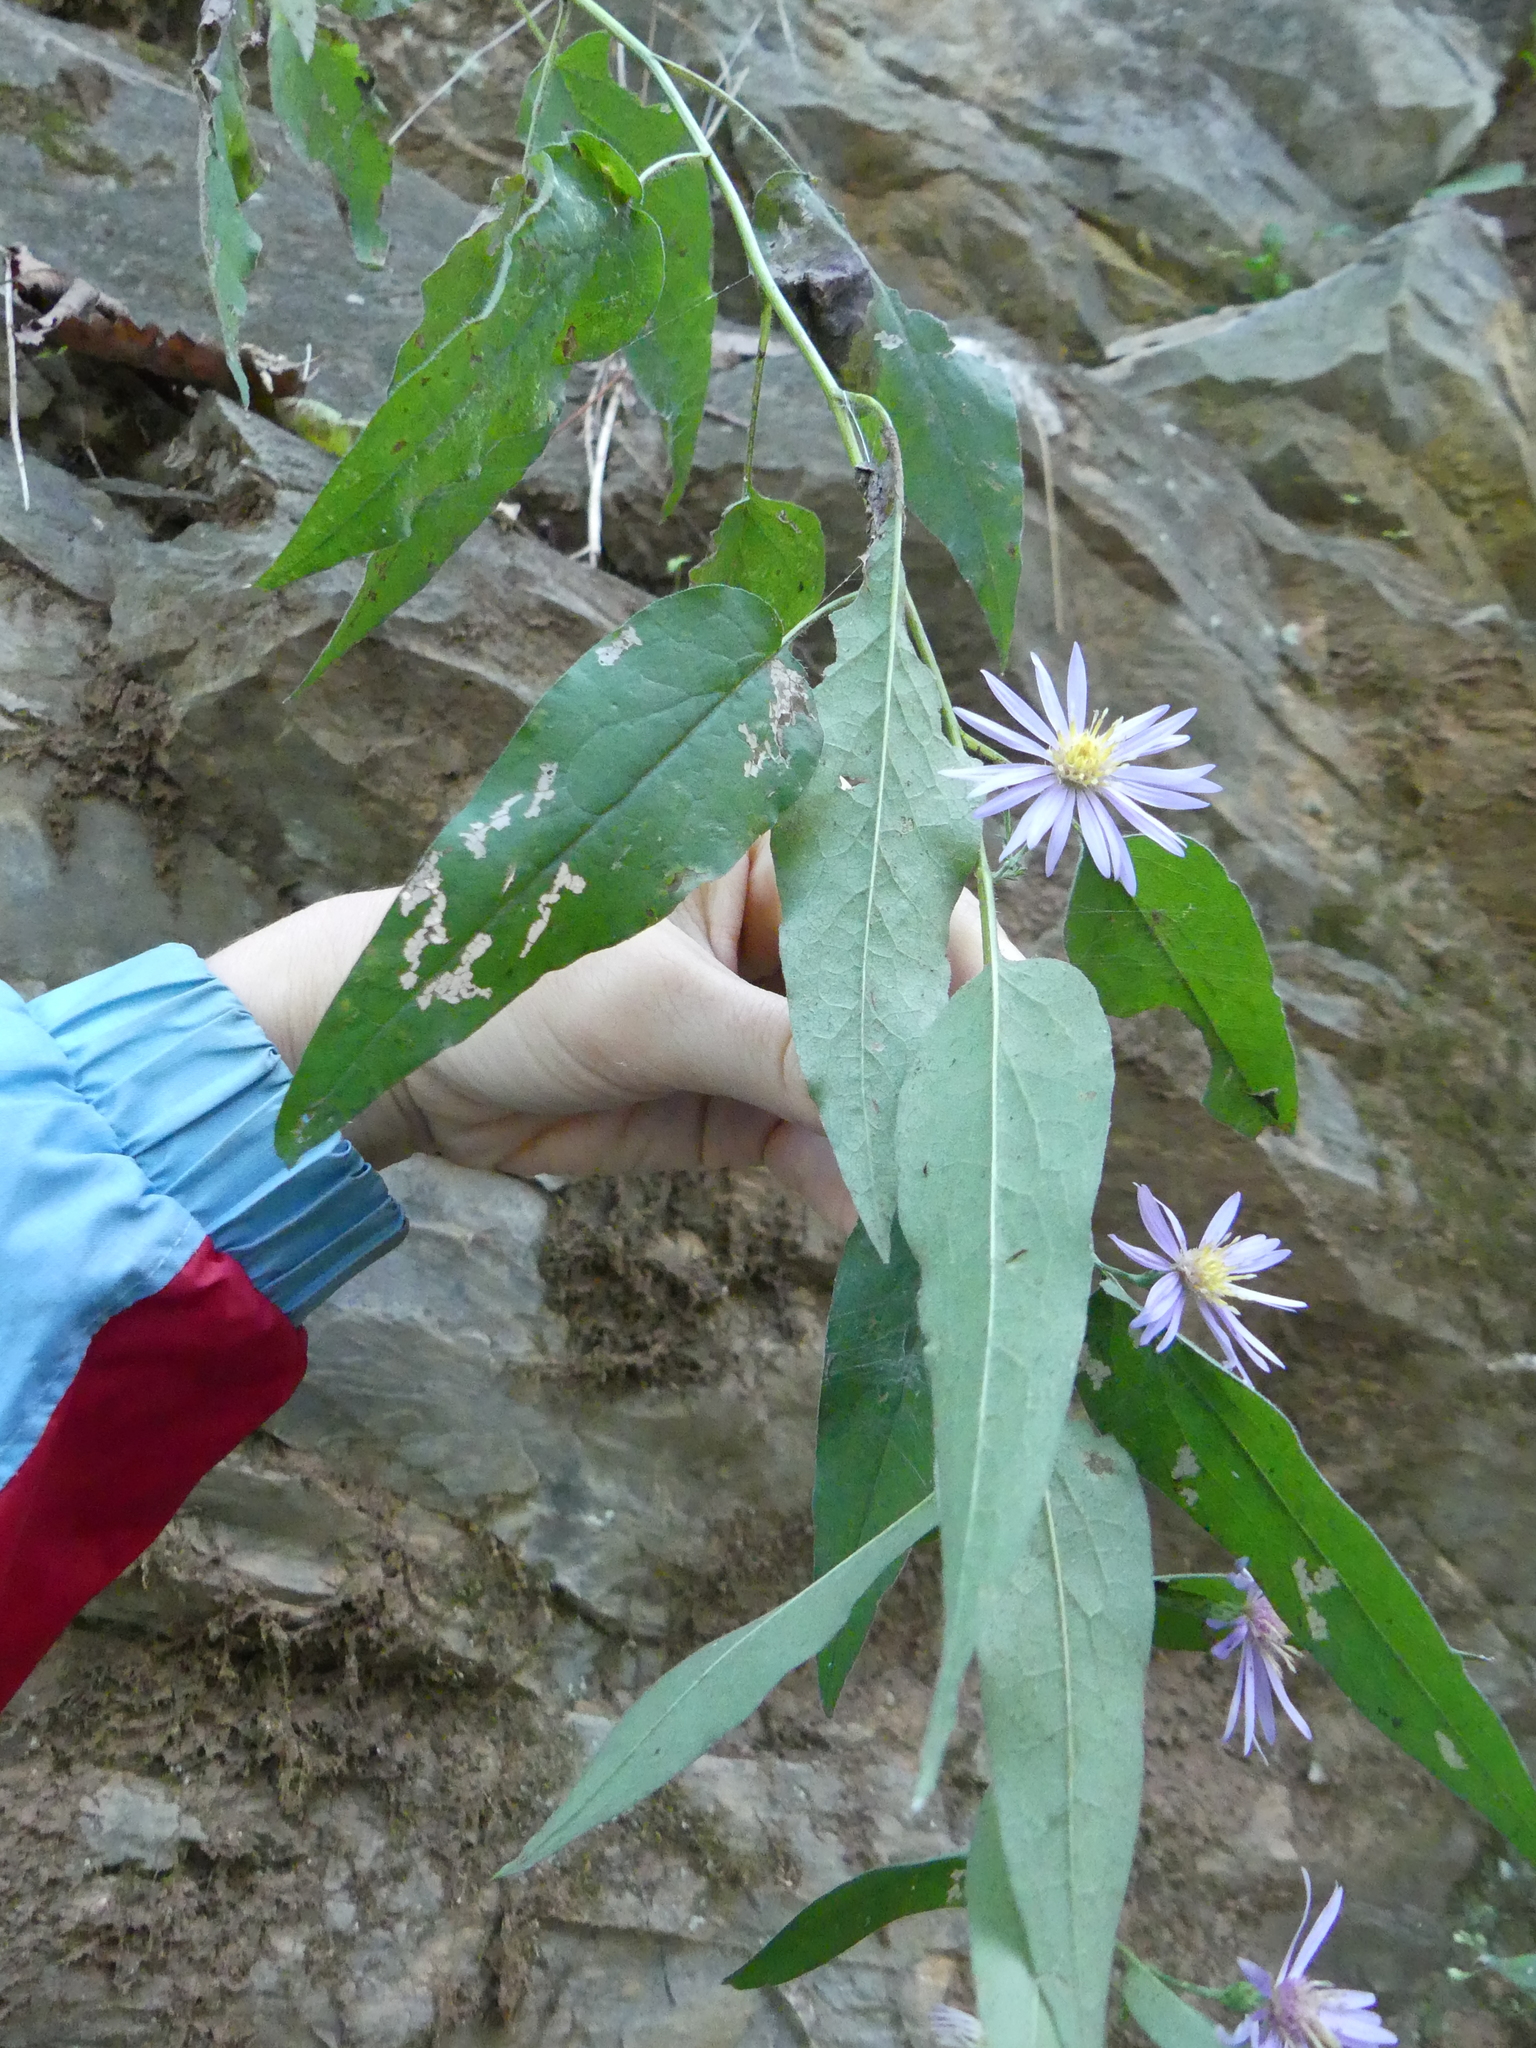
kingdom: Plantae
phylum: Tracheophyta
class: Magnoliopsida
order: Asterales
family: Asteraceae
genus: Symphyotrichum
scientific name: Symphyotrichum shortii
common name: Short's aster
